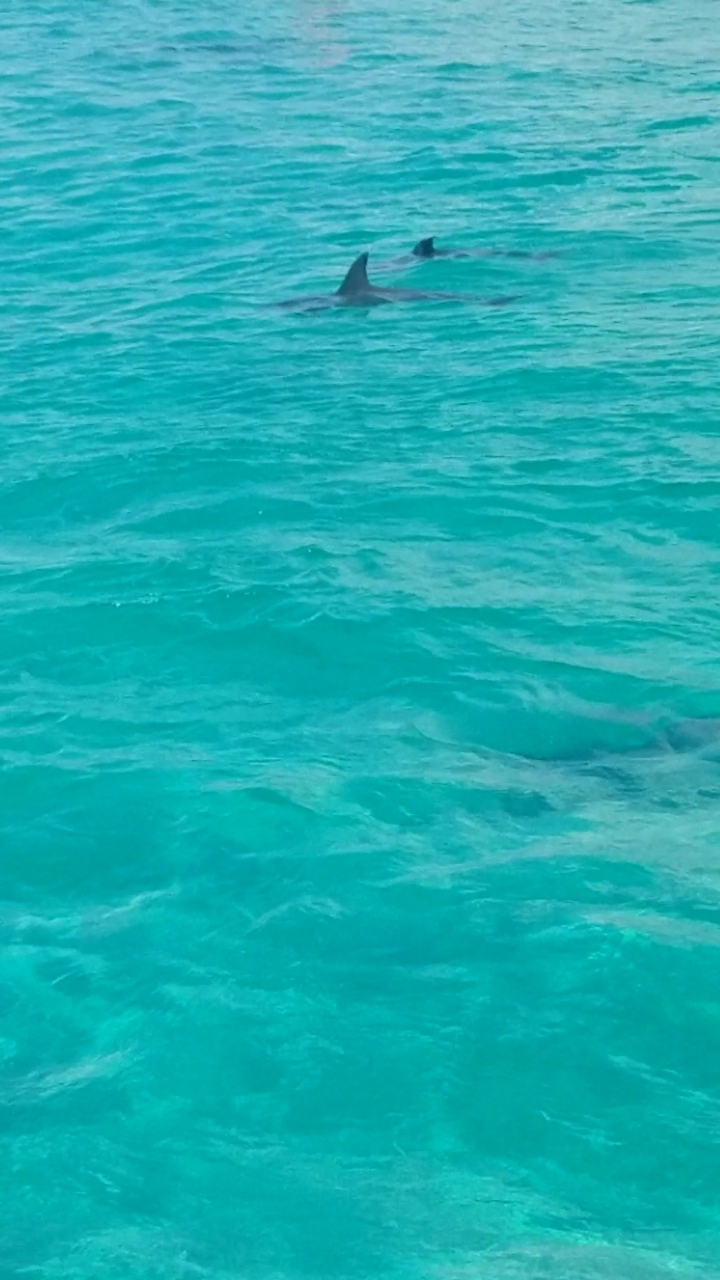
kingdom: Animalia
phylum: Chordata
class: Mammalia
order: Cetacea
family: Delphinidae
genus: Tursiops
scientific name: Tursiops truncatus
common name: Bottlenose dolphin
